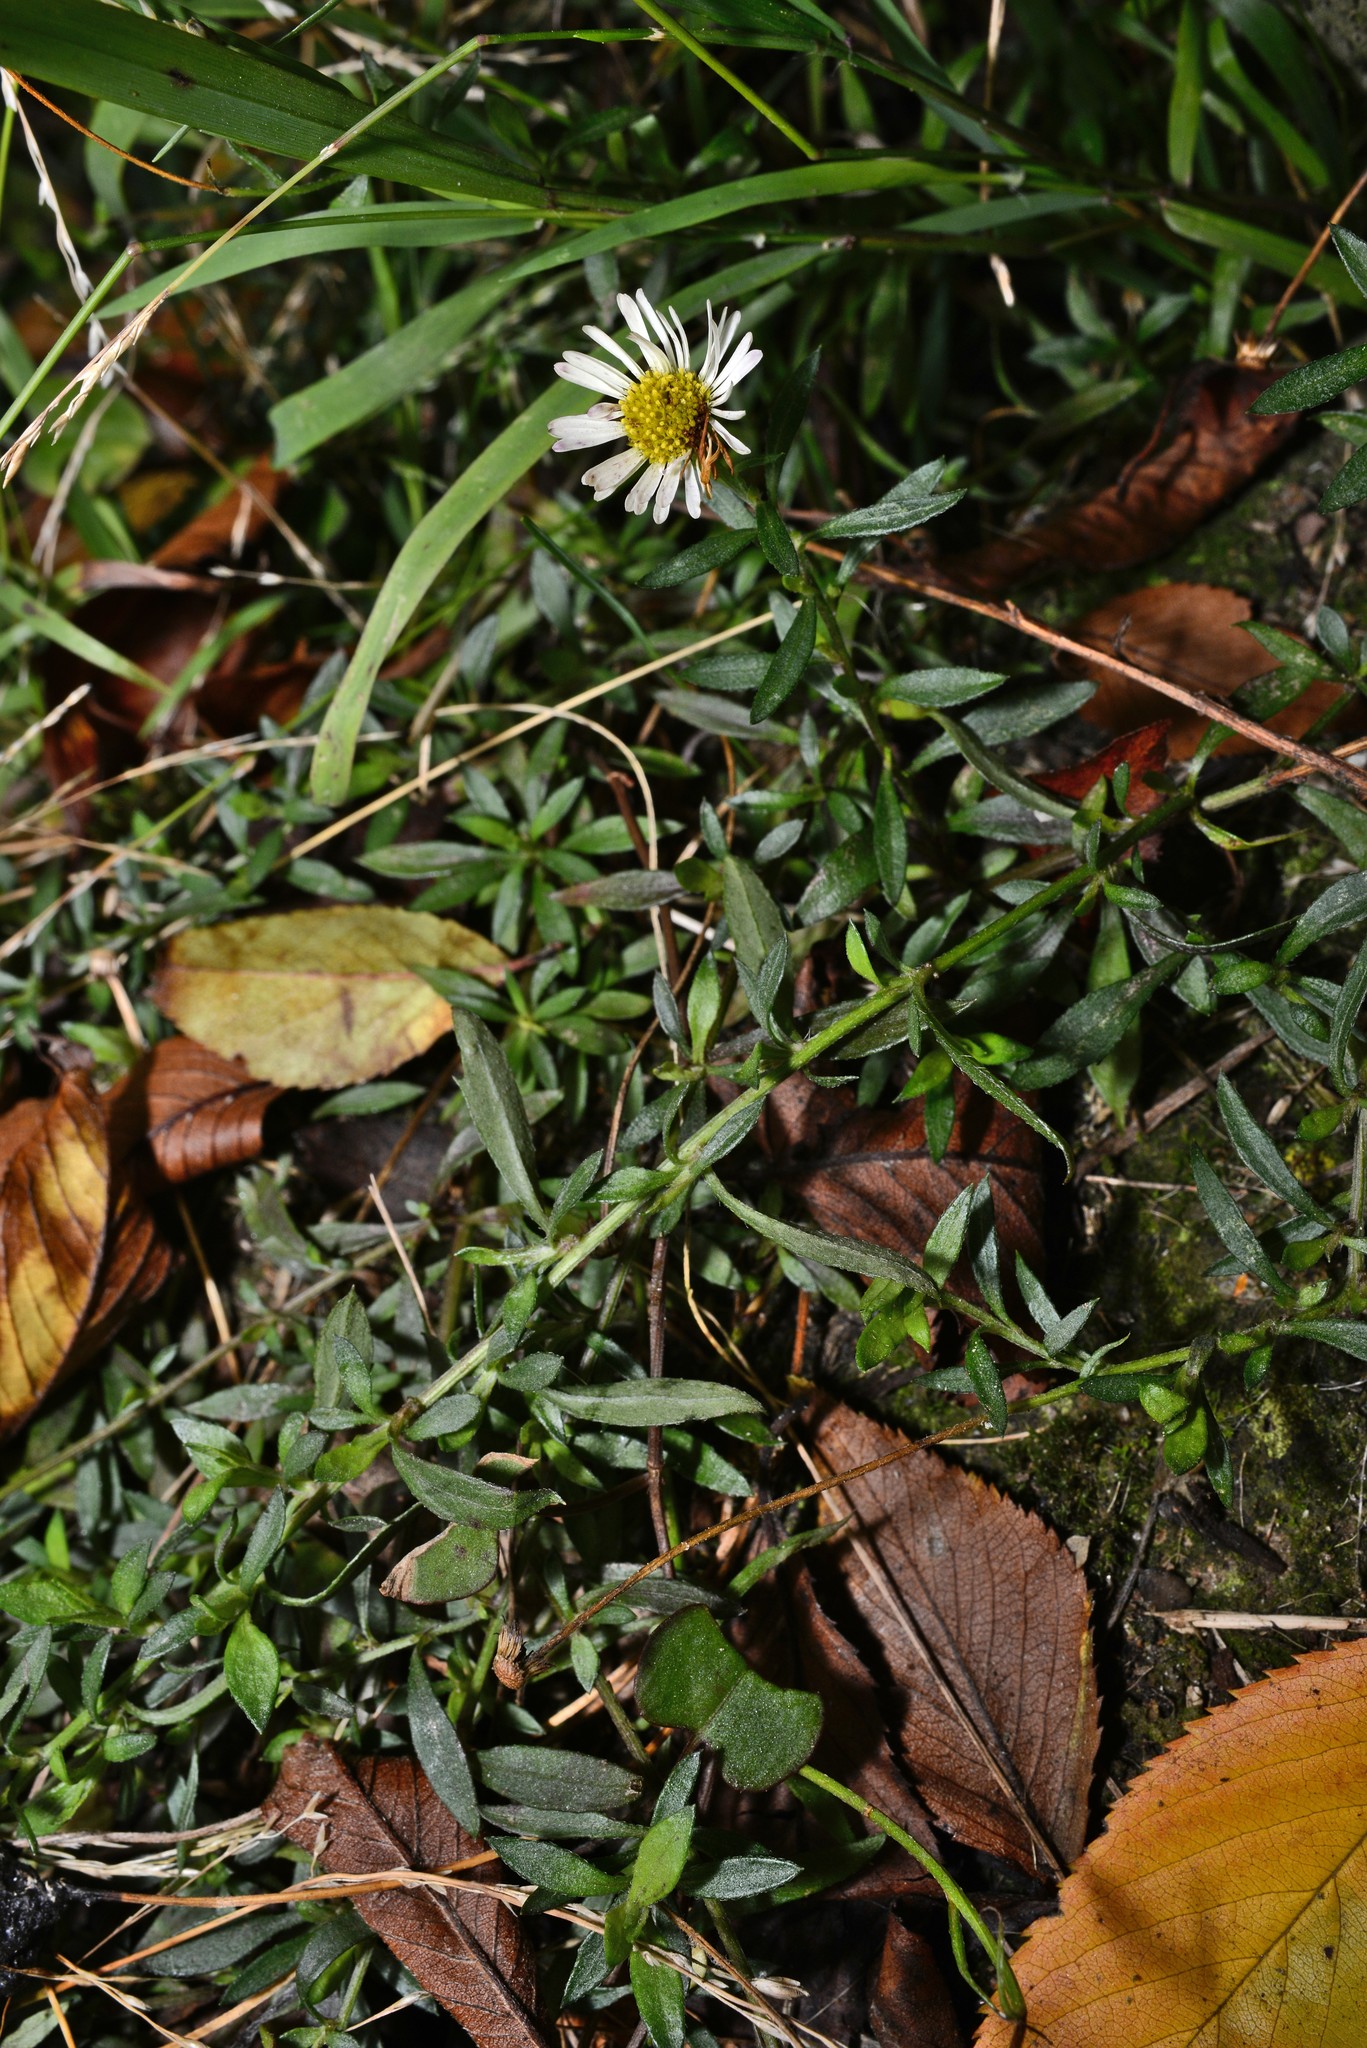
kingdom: Plantae
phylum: Tracheophyta
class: Magnoliopsida
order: Asterales
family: Asteraceae
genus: Erigeron
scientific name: Erigeron karvinskianus
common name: Mexican fleabane
